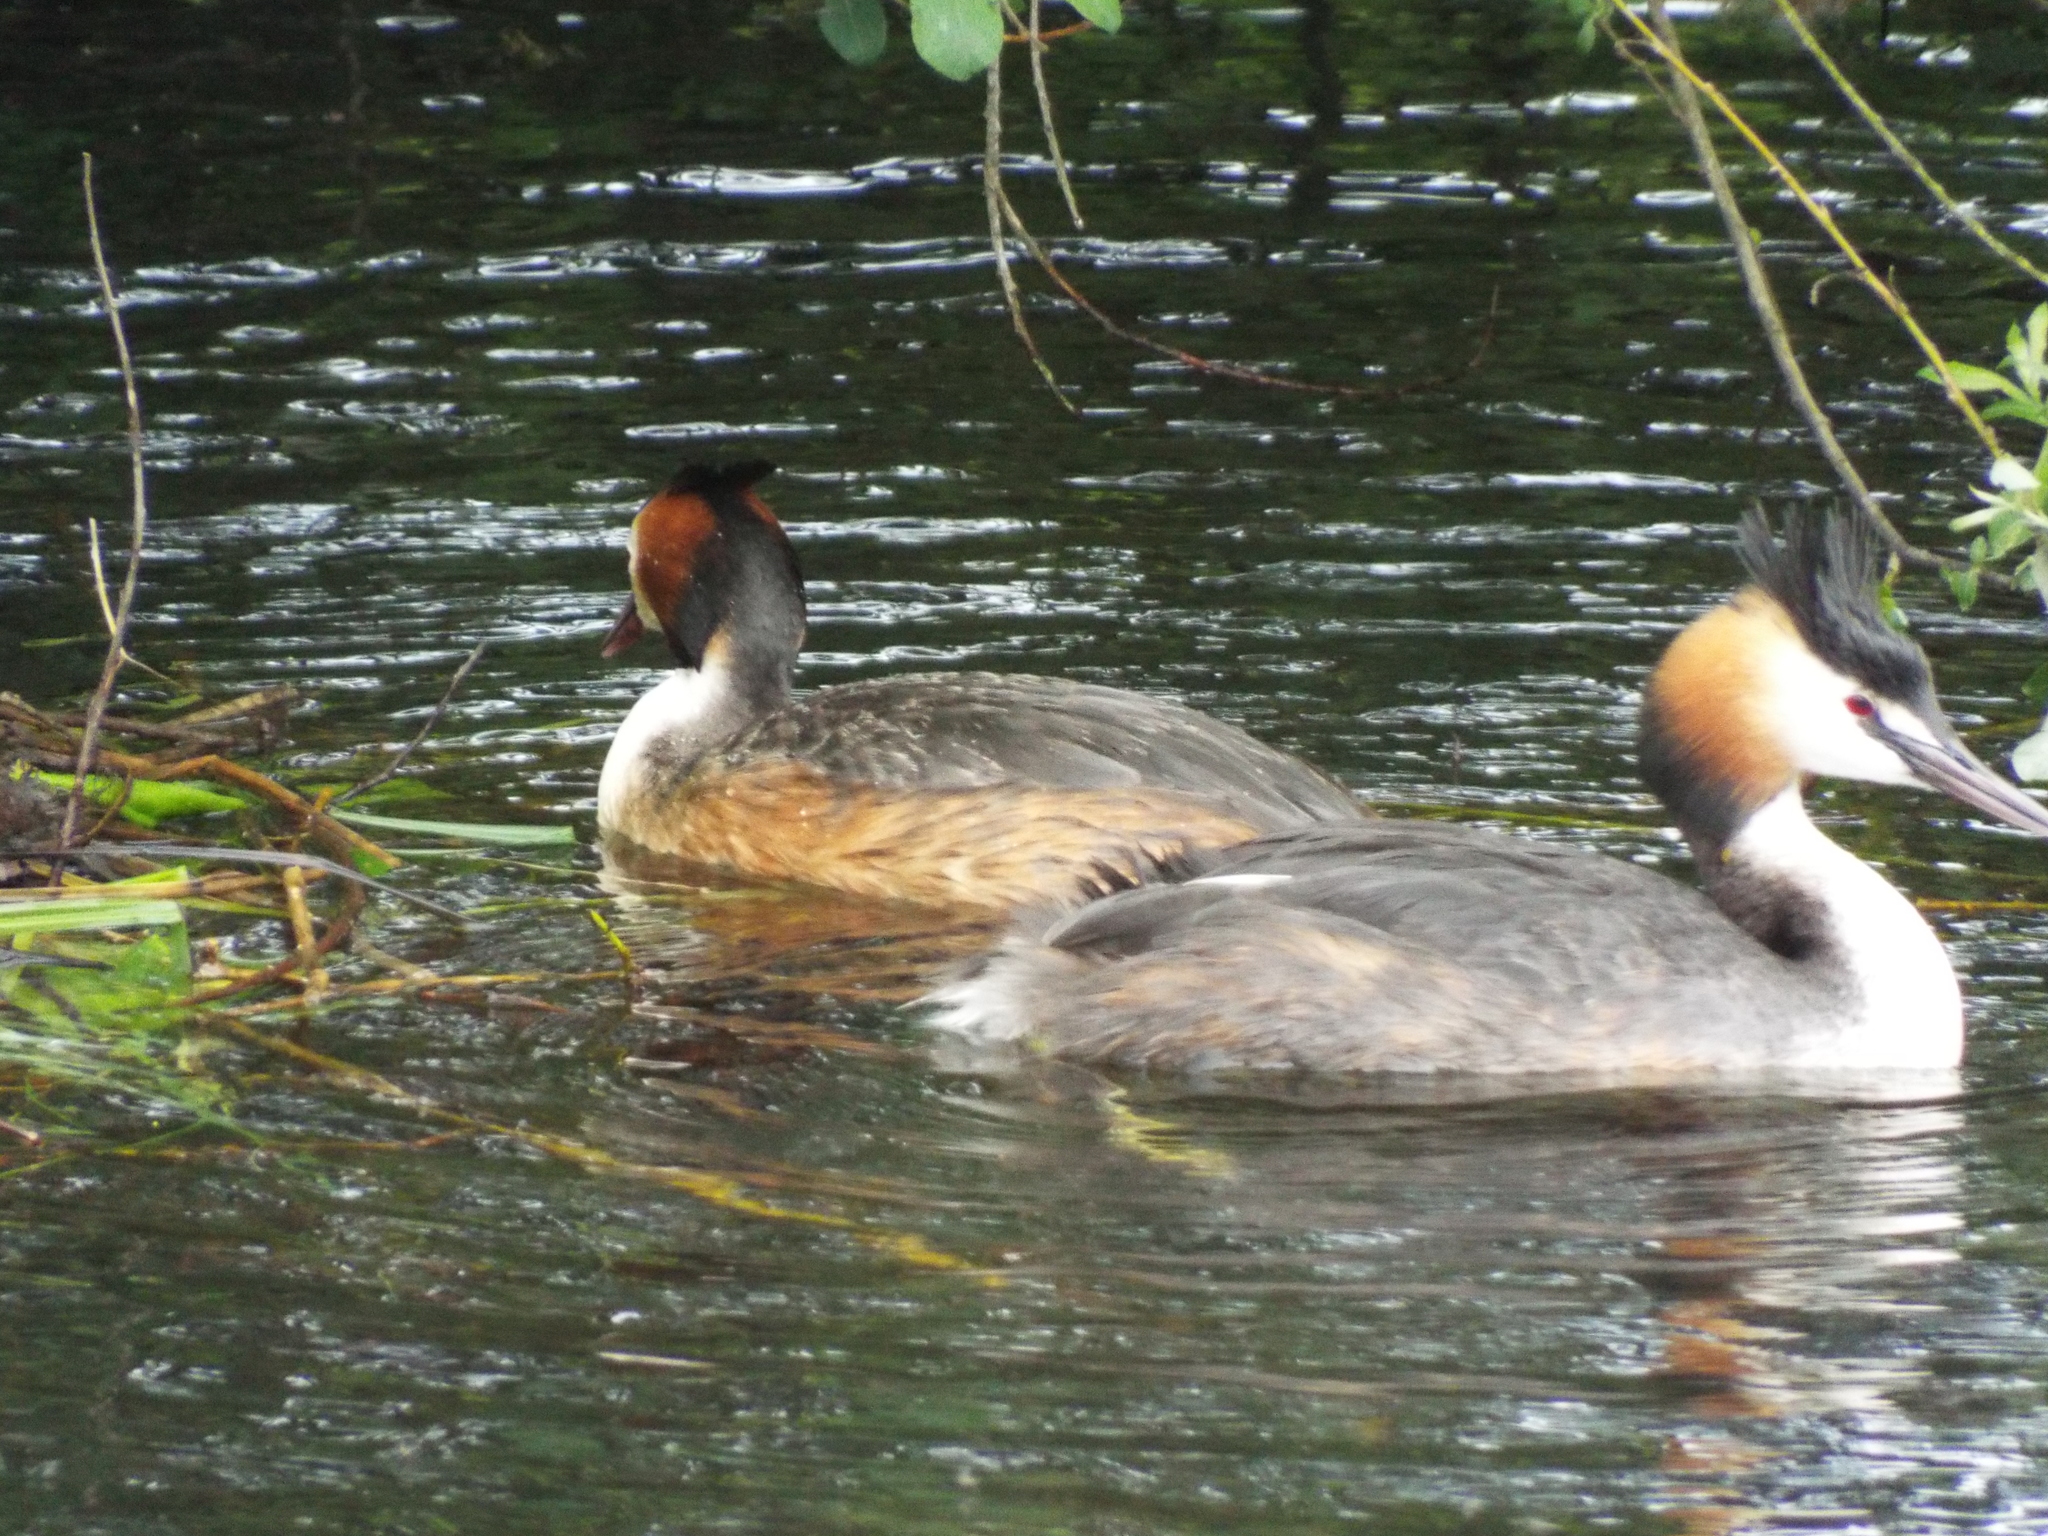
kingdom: Animalia
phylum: Chordata
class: Aves
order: Podicipediformes
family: Podicipedidae
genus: Podiceps
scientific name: Podiceps cristatus
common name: Great crested grebe
